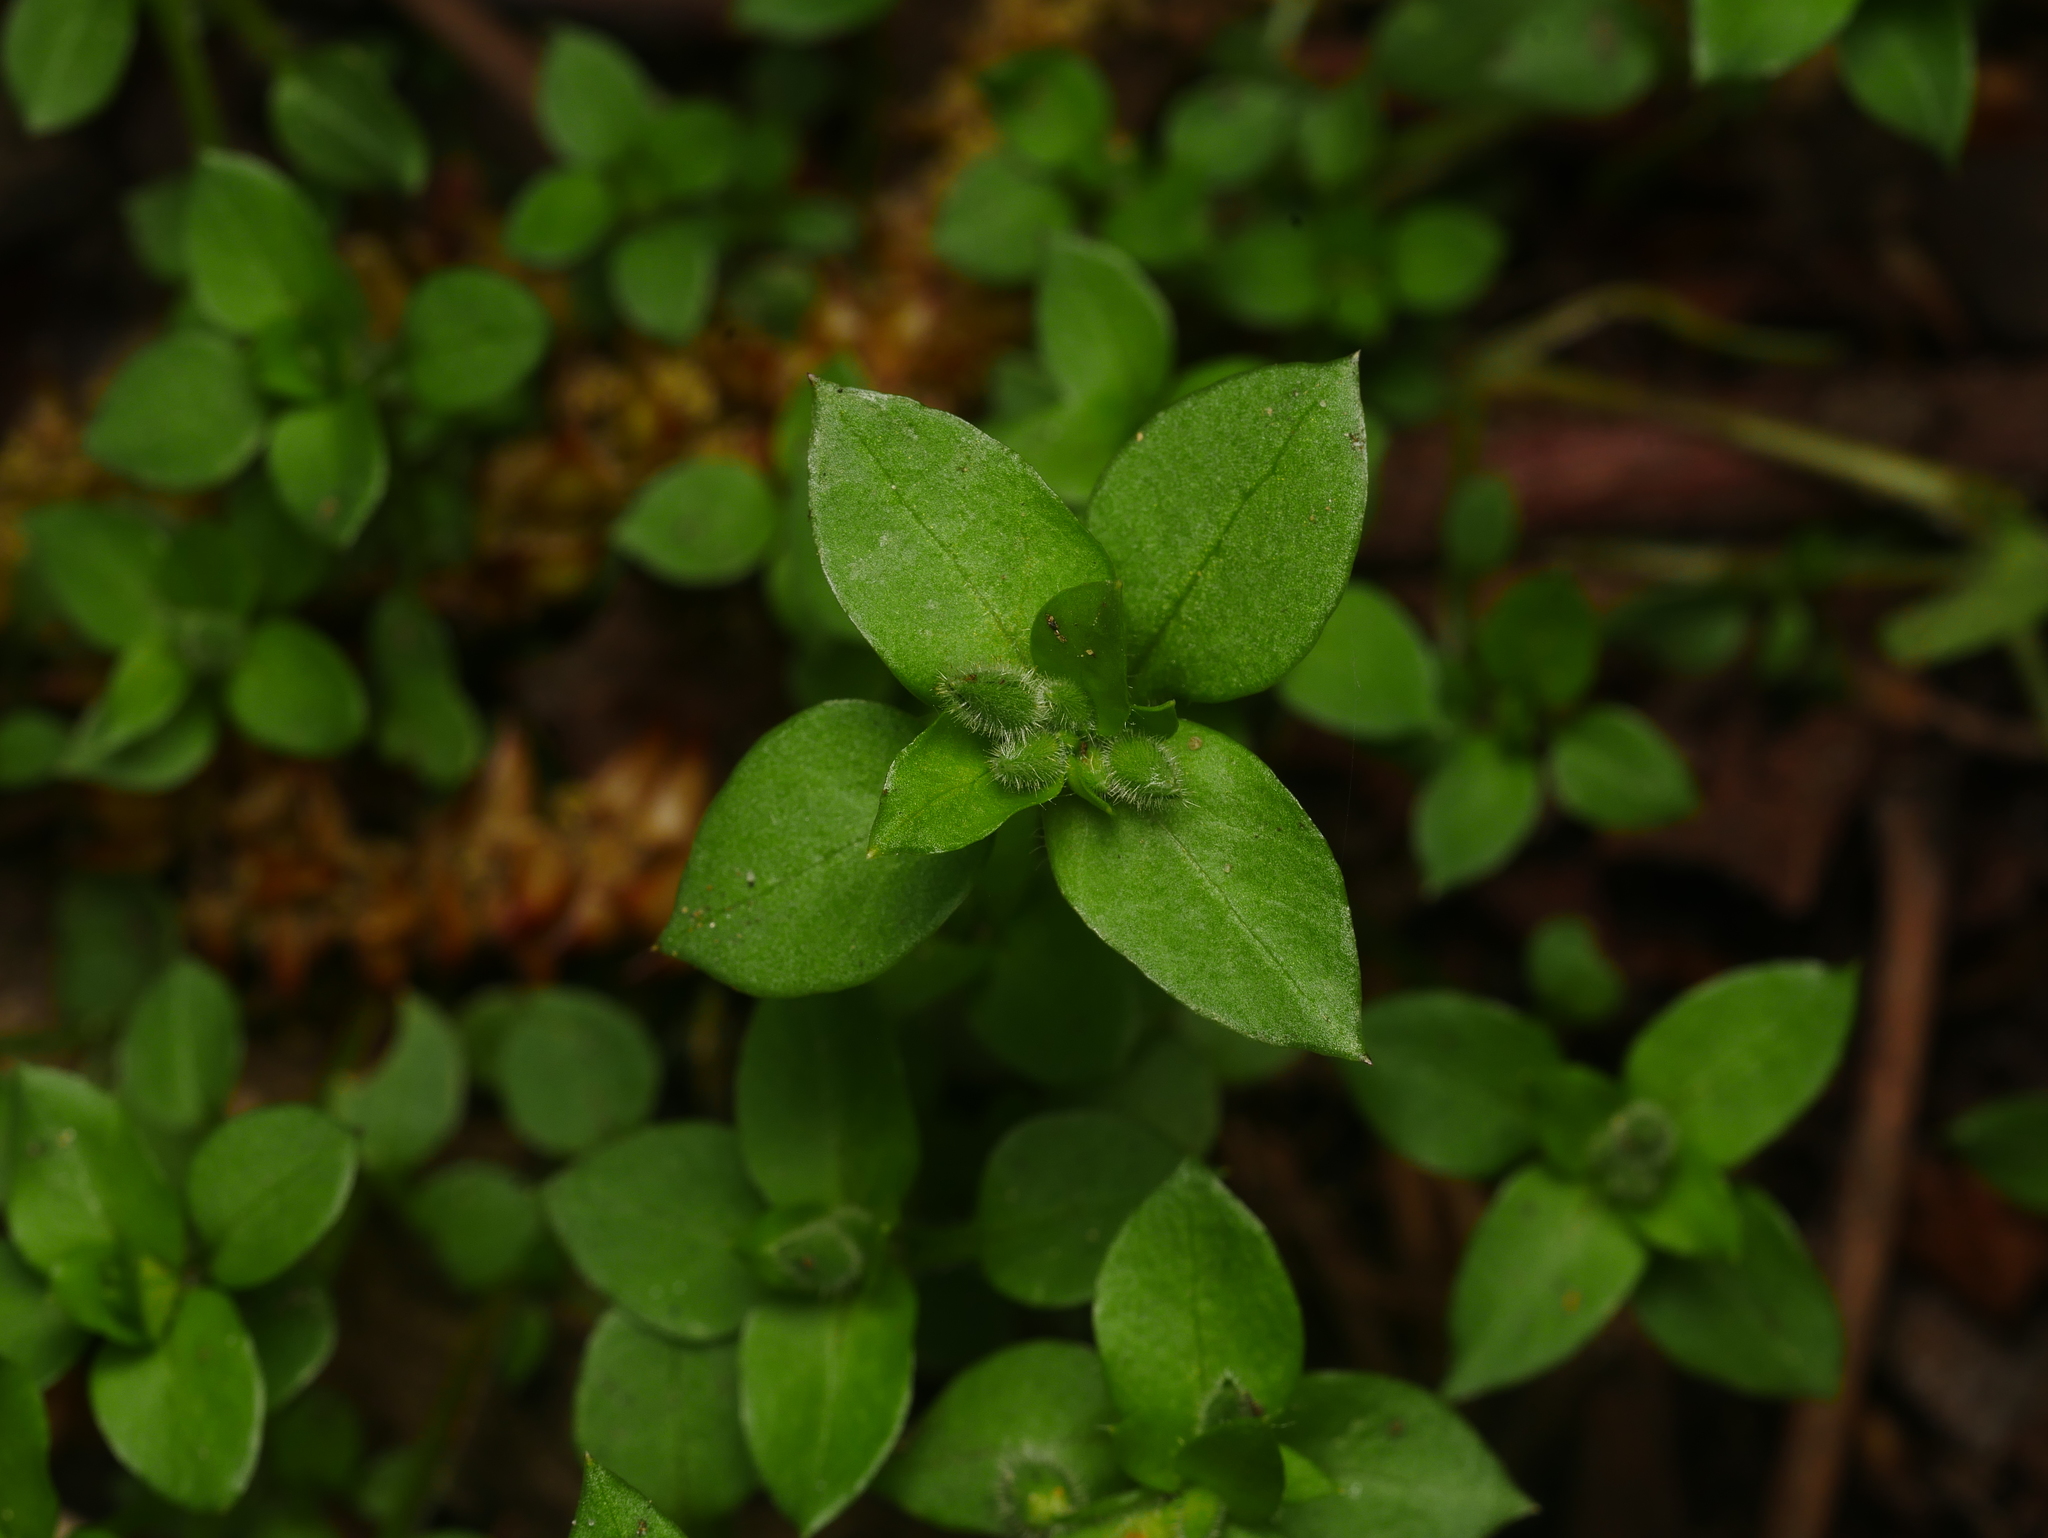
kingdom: Plantae
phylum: Tracheophyta
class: Magnoliopsida
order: Caryophyllales
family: Caryophyllaceae
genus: Stellaria
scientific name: Stellaria media
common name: Common chickweed
